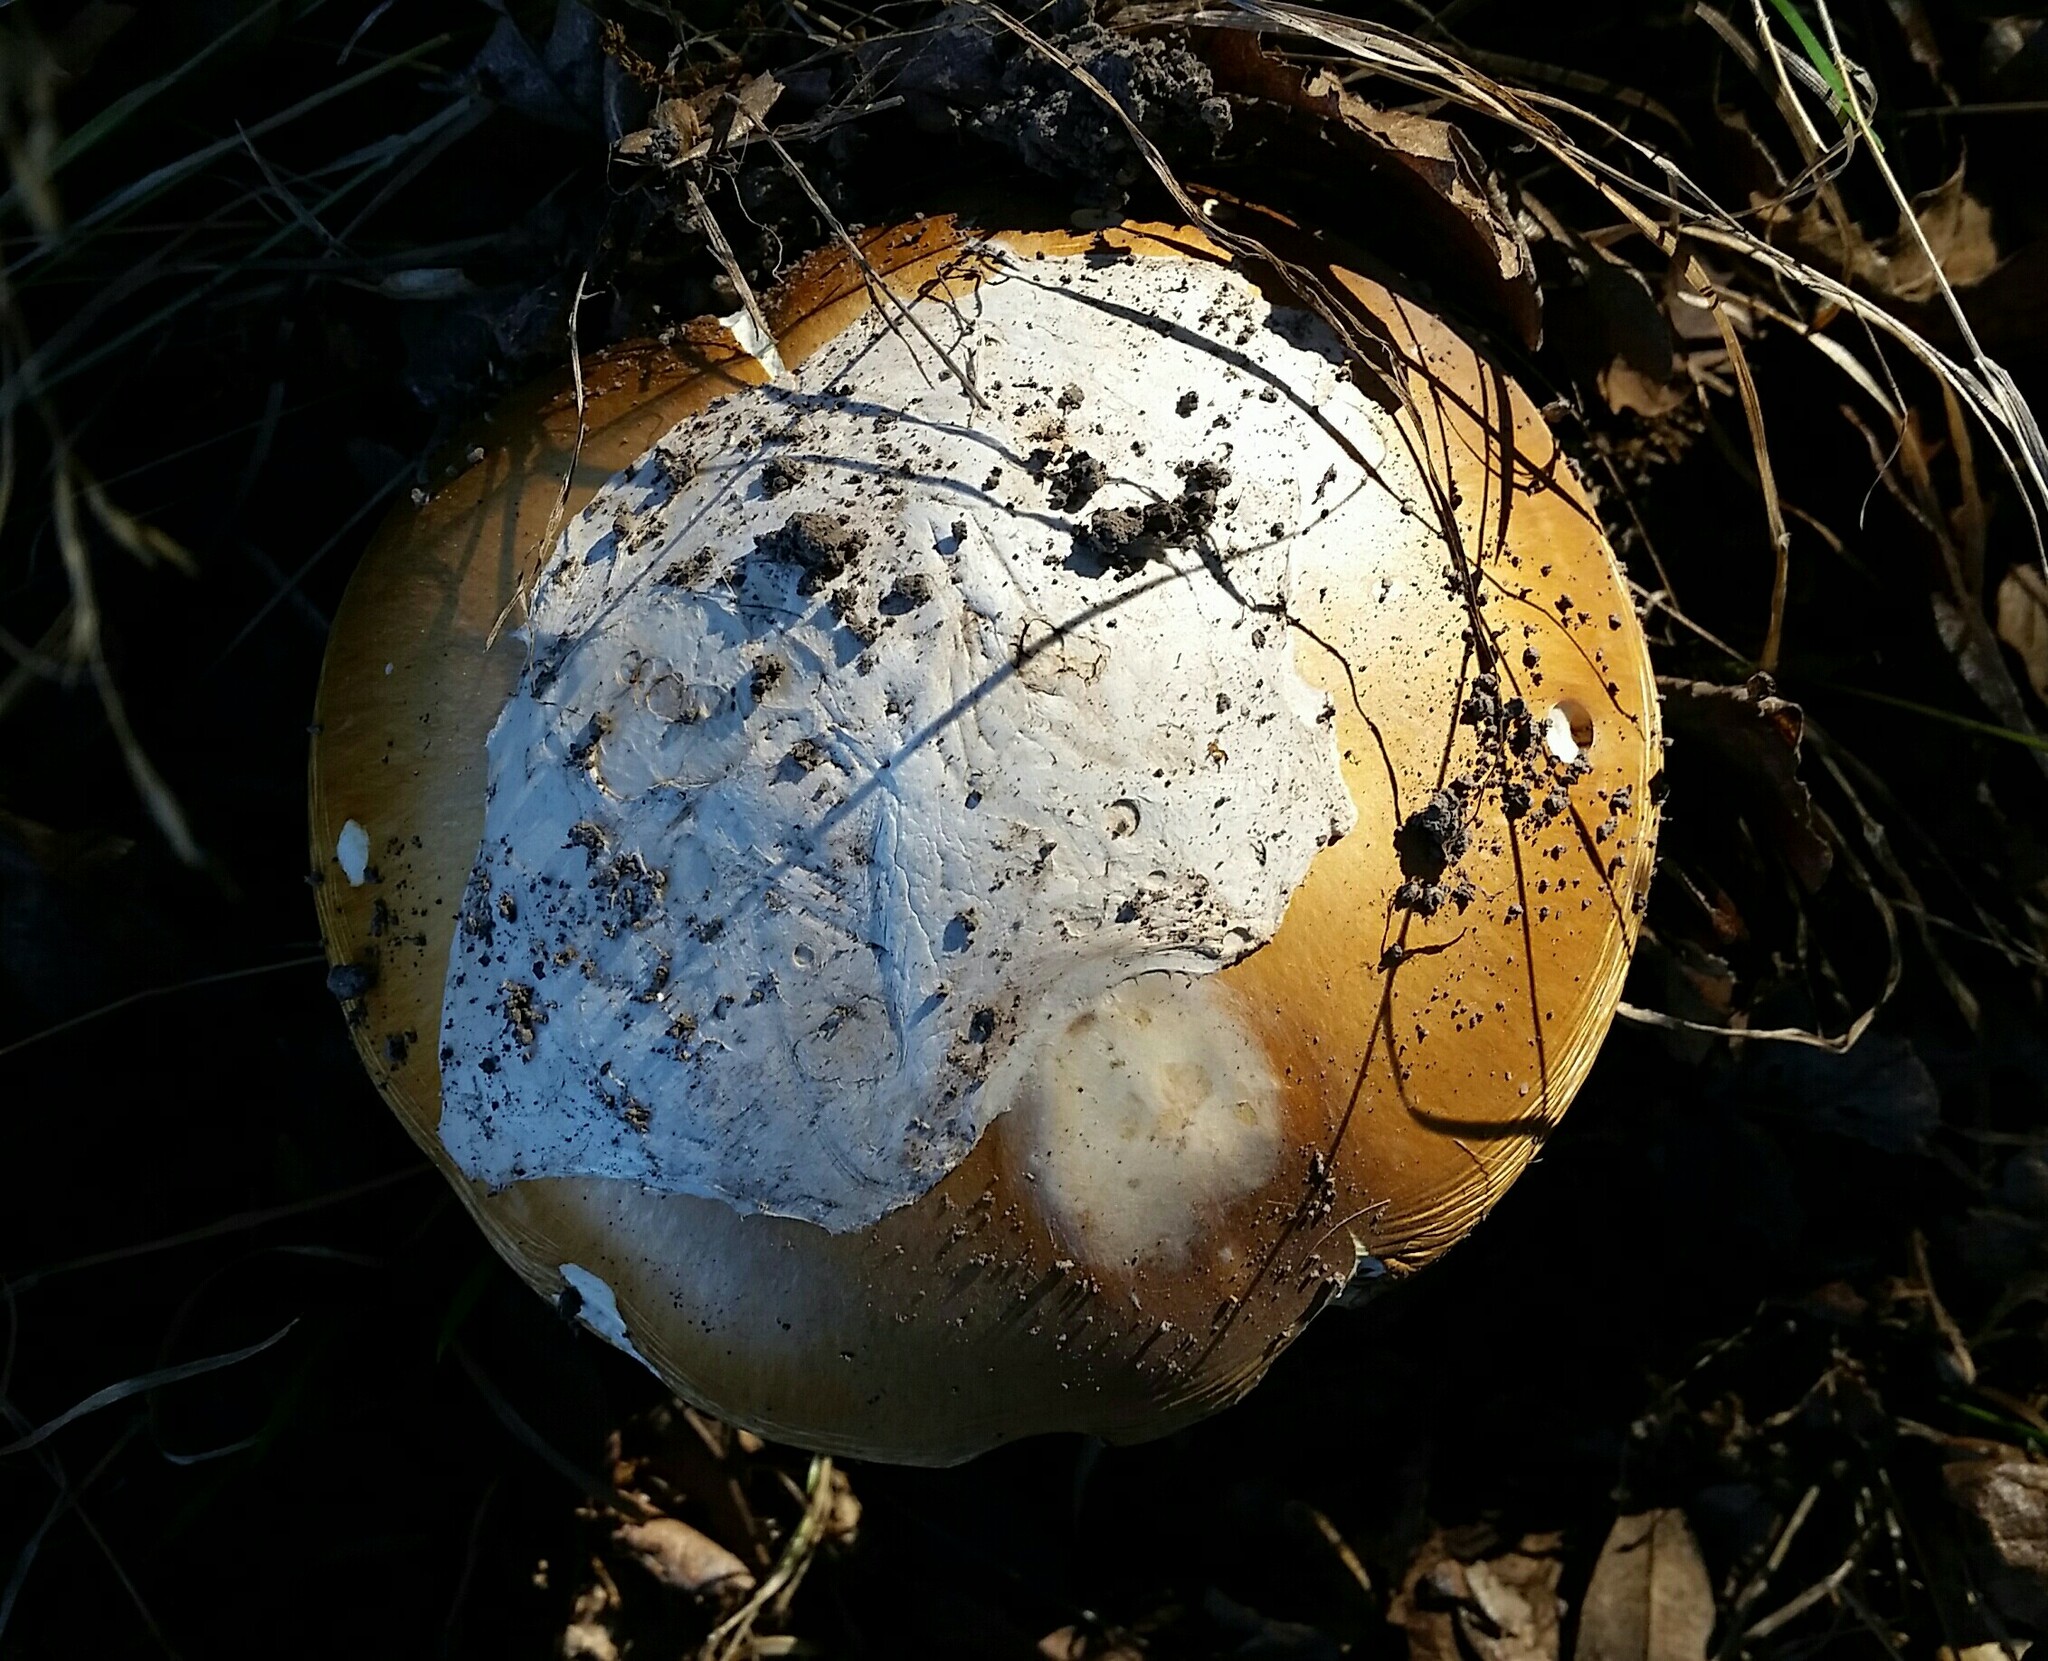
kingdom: Fungi
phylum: Basidiomycota
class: Agaricomycetes
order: Agaricales
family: Amanitaceae
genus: Amanita
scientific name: Amanita calyptroderma
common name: Coccora
